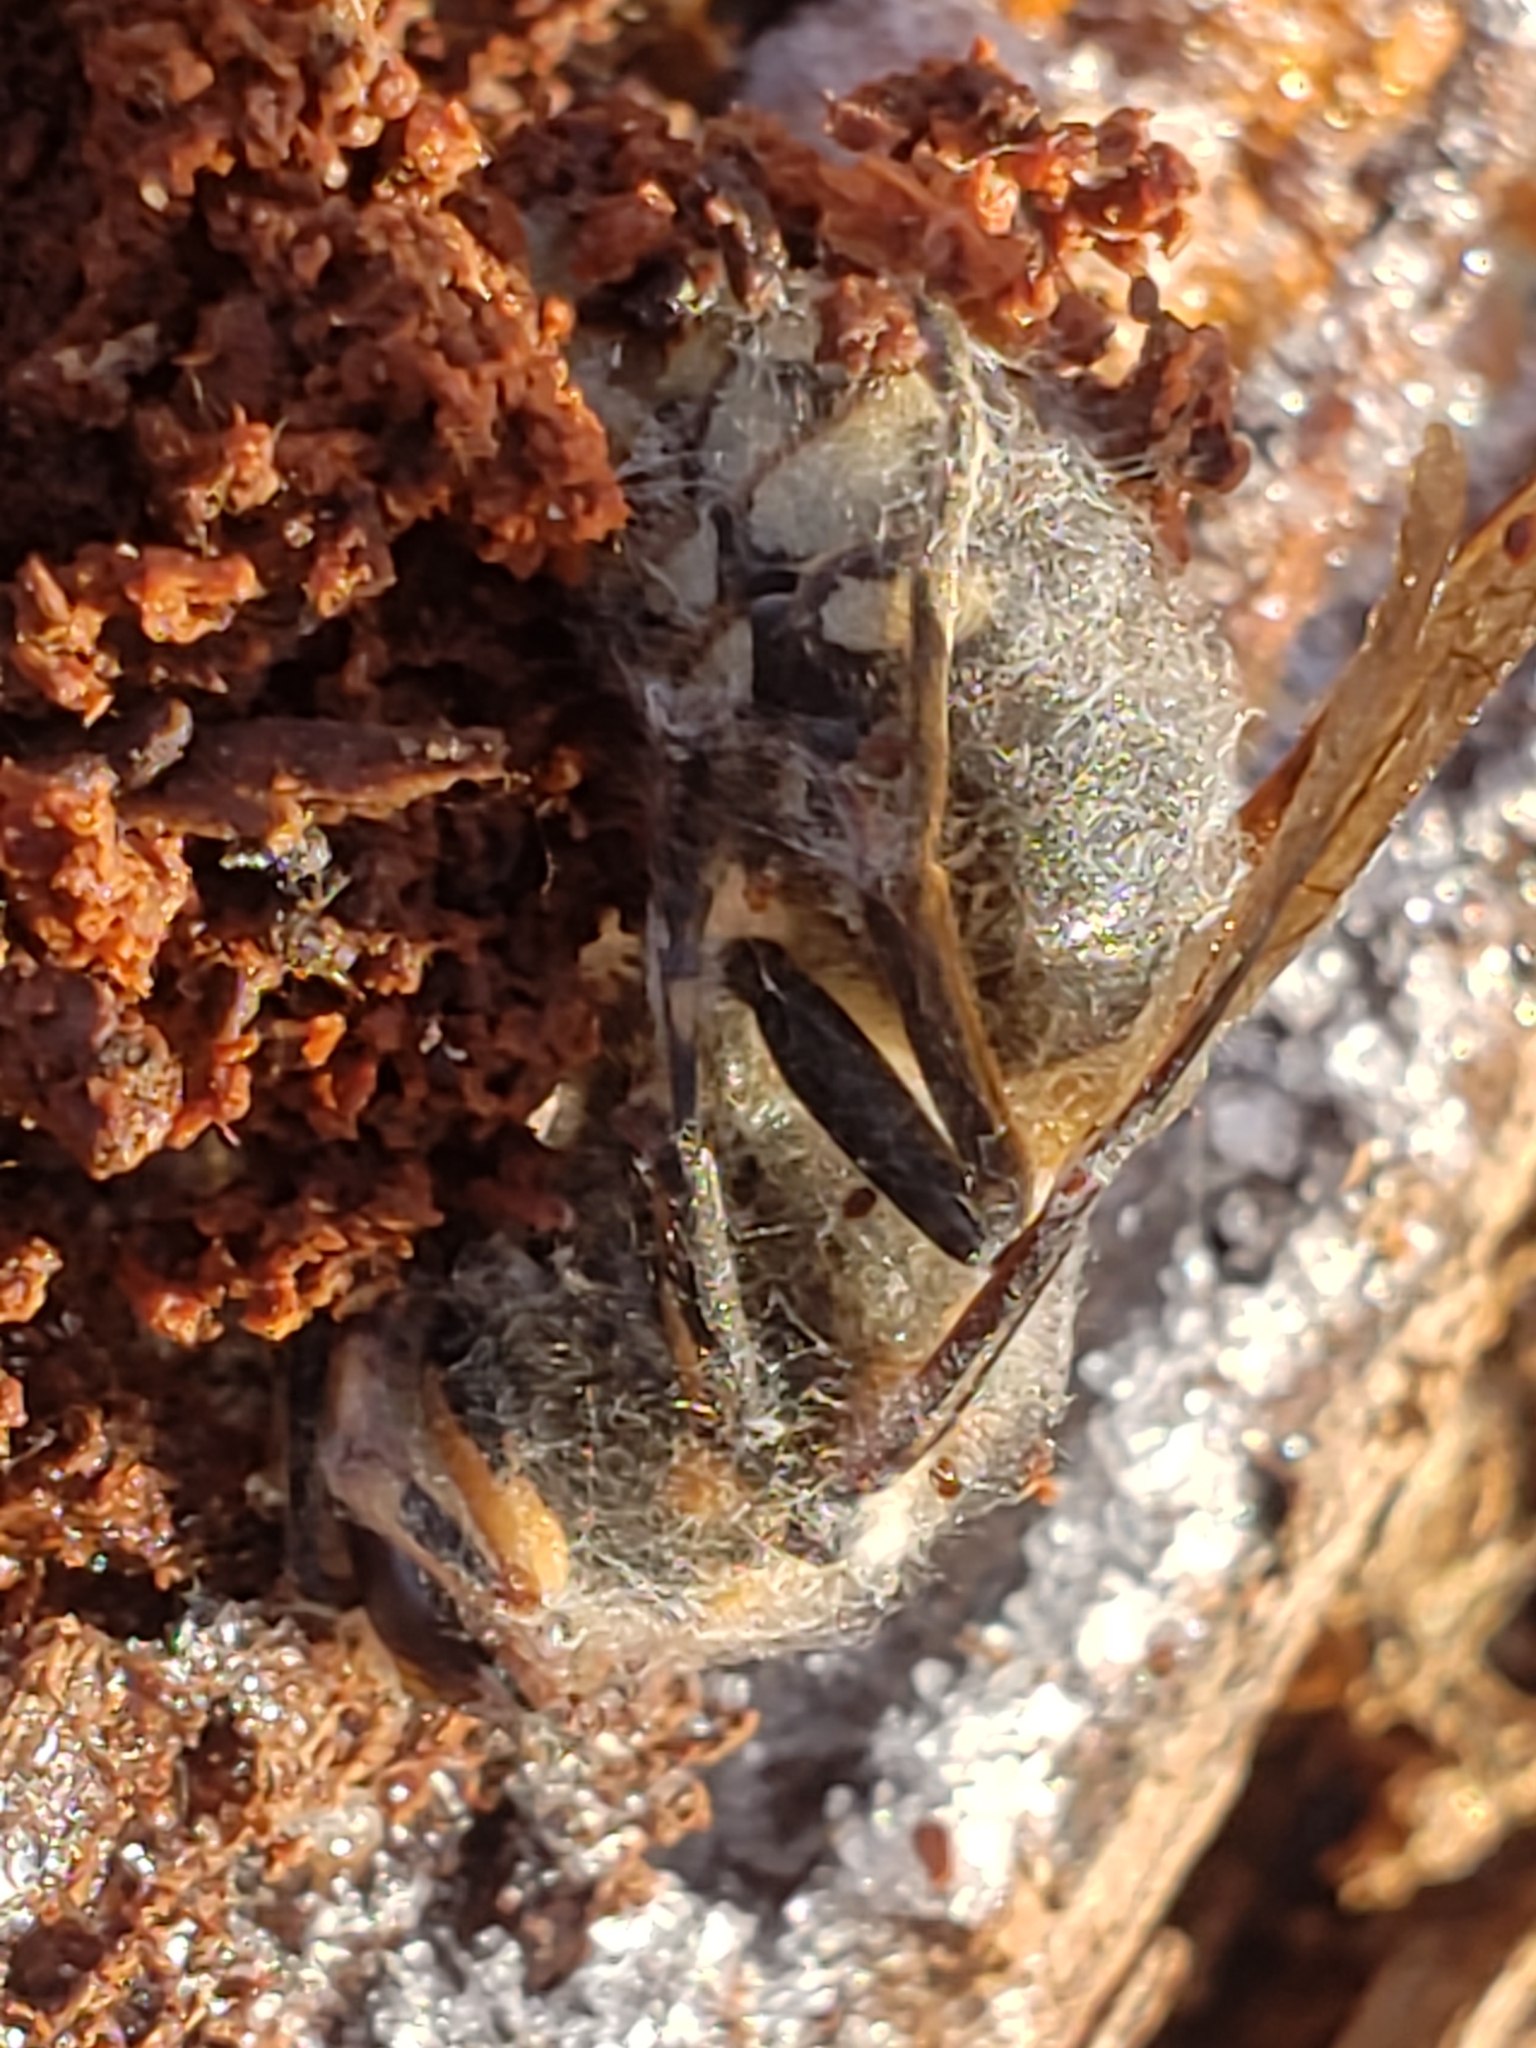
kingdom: Animalia
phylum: Arthropoda
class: Insecta
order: Hymenoptera
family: Vespidae
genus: Dolichovespula
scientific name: Dolichovespula maculata
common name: Bald-faced hornet
